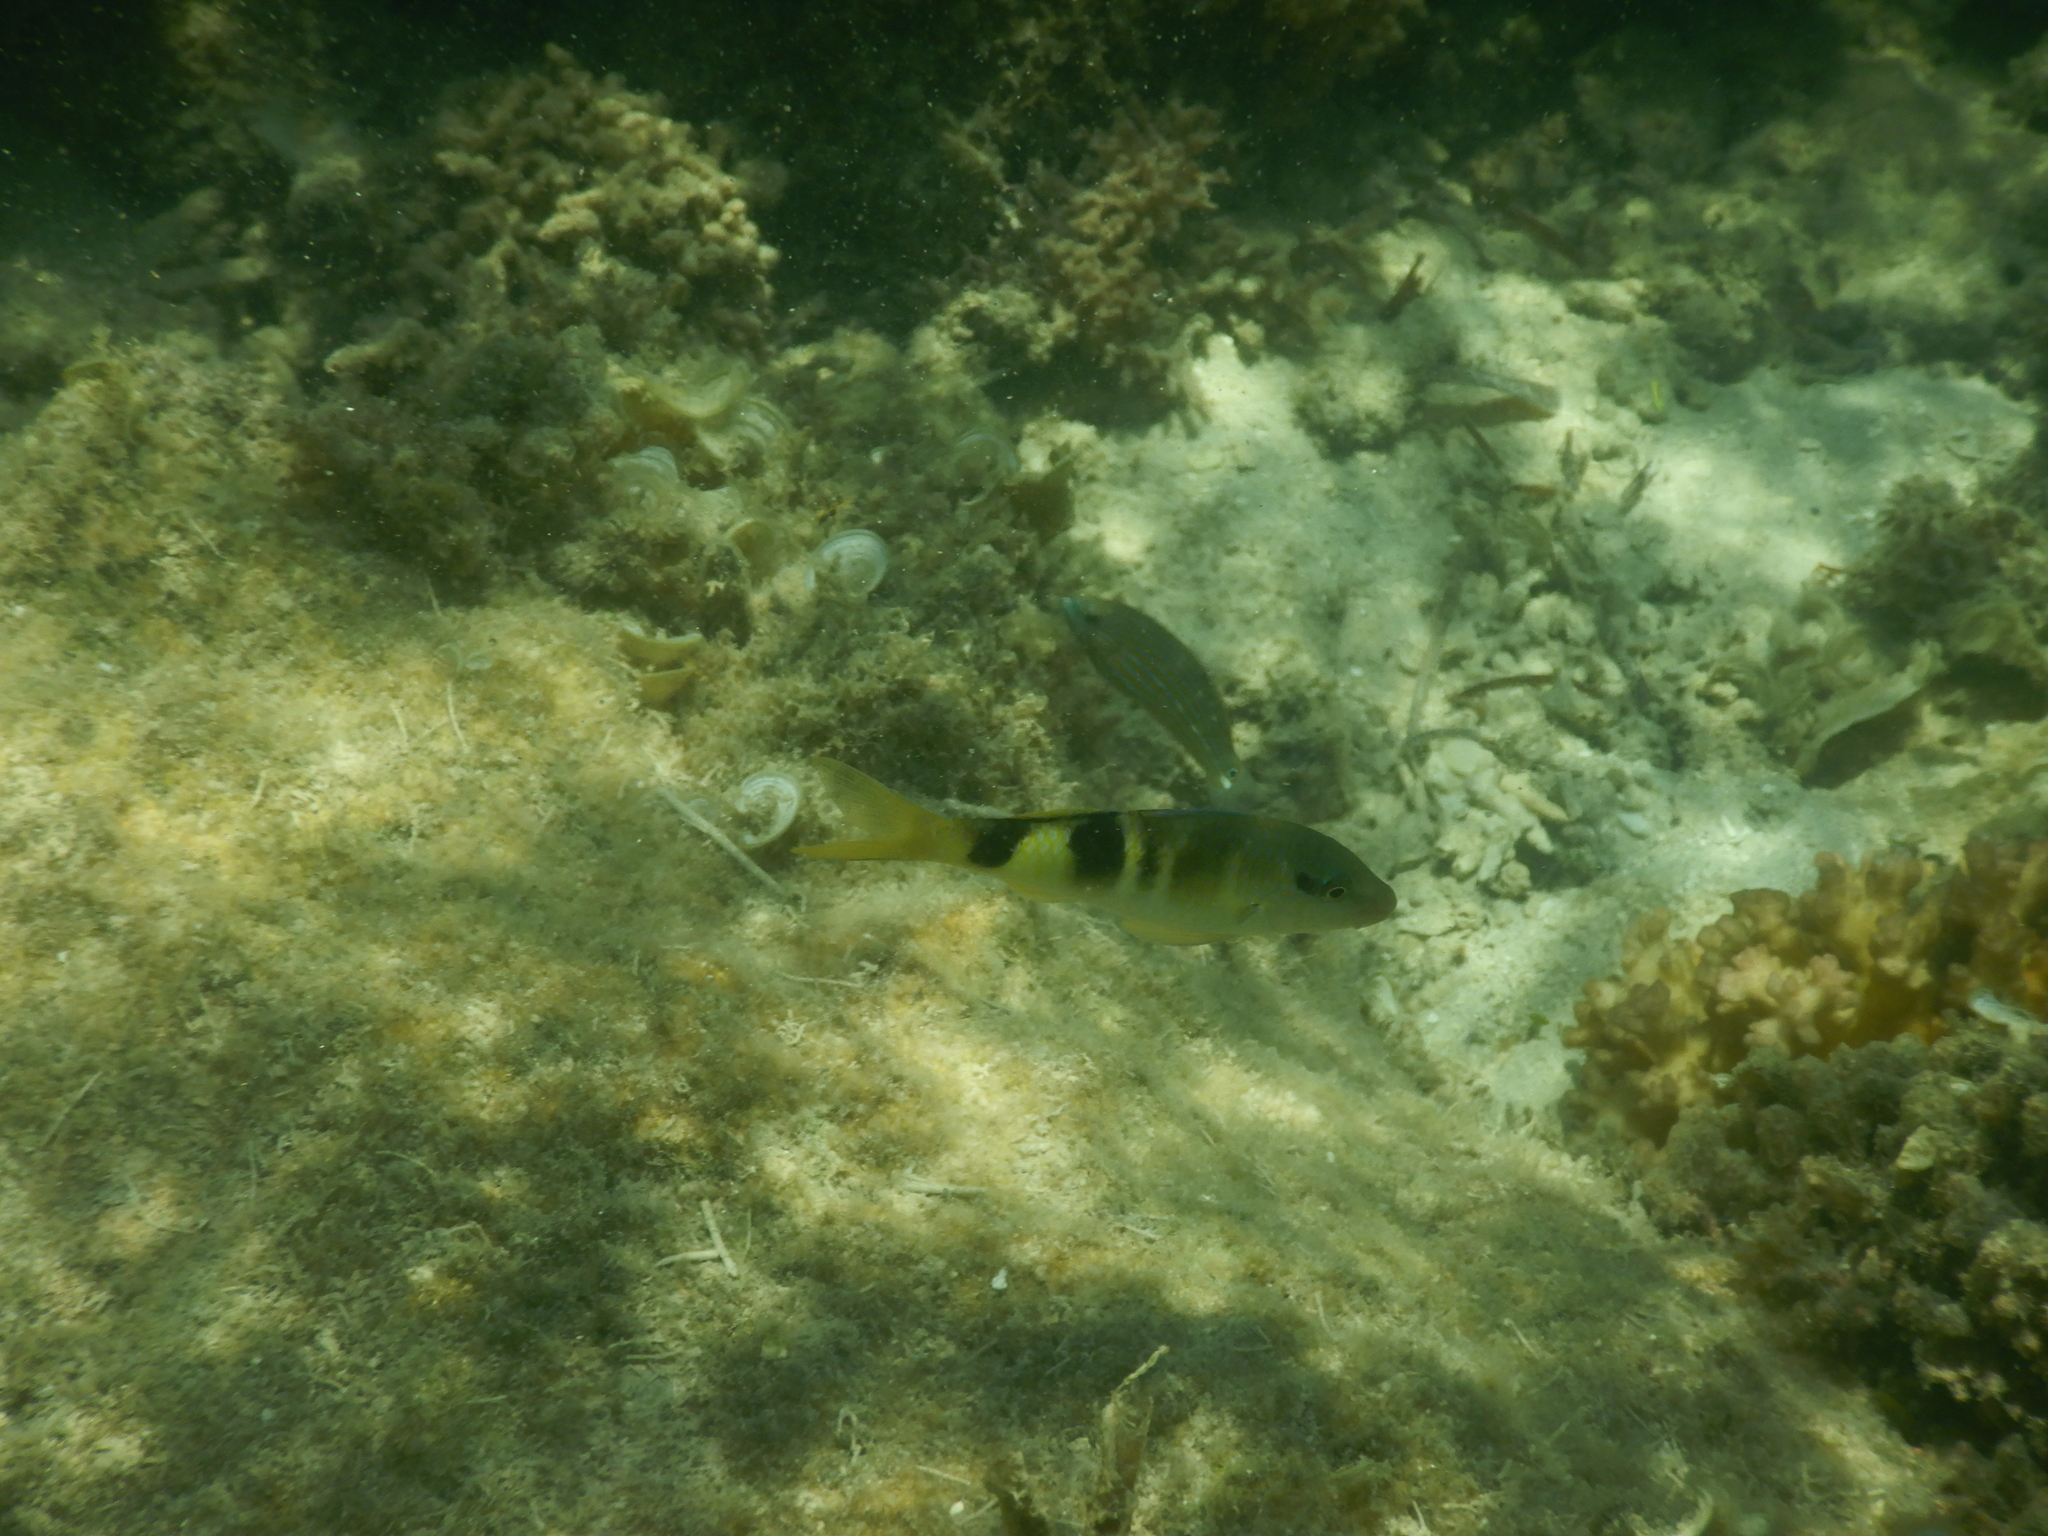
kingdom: Animalia
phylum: Chordata
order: Perciformes
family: Mullidae
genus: Parupeneus
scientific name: Parupeneus multifasciatus
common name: Manybar goatfish
